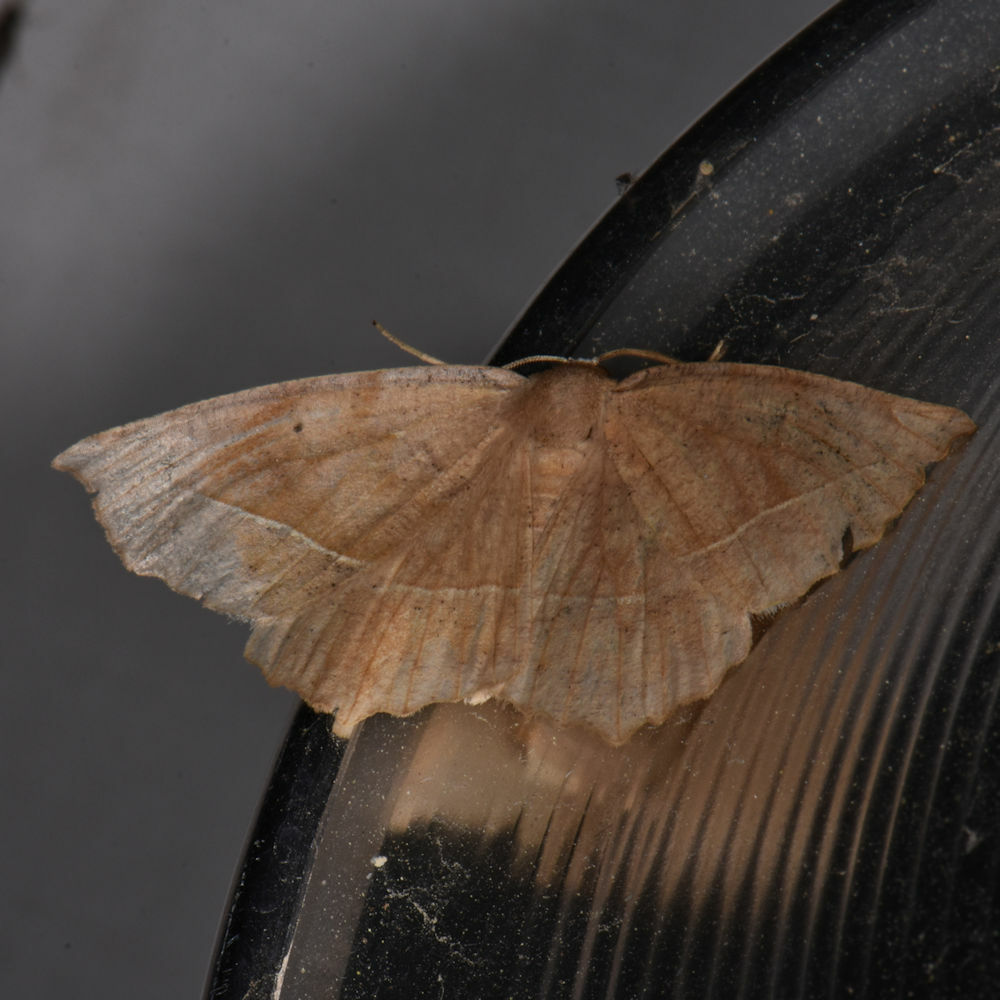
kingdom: Animalia
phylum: Arthropoda
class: Insecta
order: Lepidoptera
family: Geometridae
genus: Eutrapela
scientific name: Eutrapela clemataria
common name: Curved-toothed geometer
